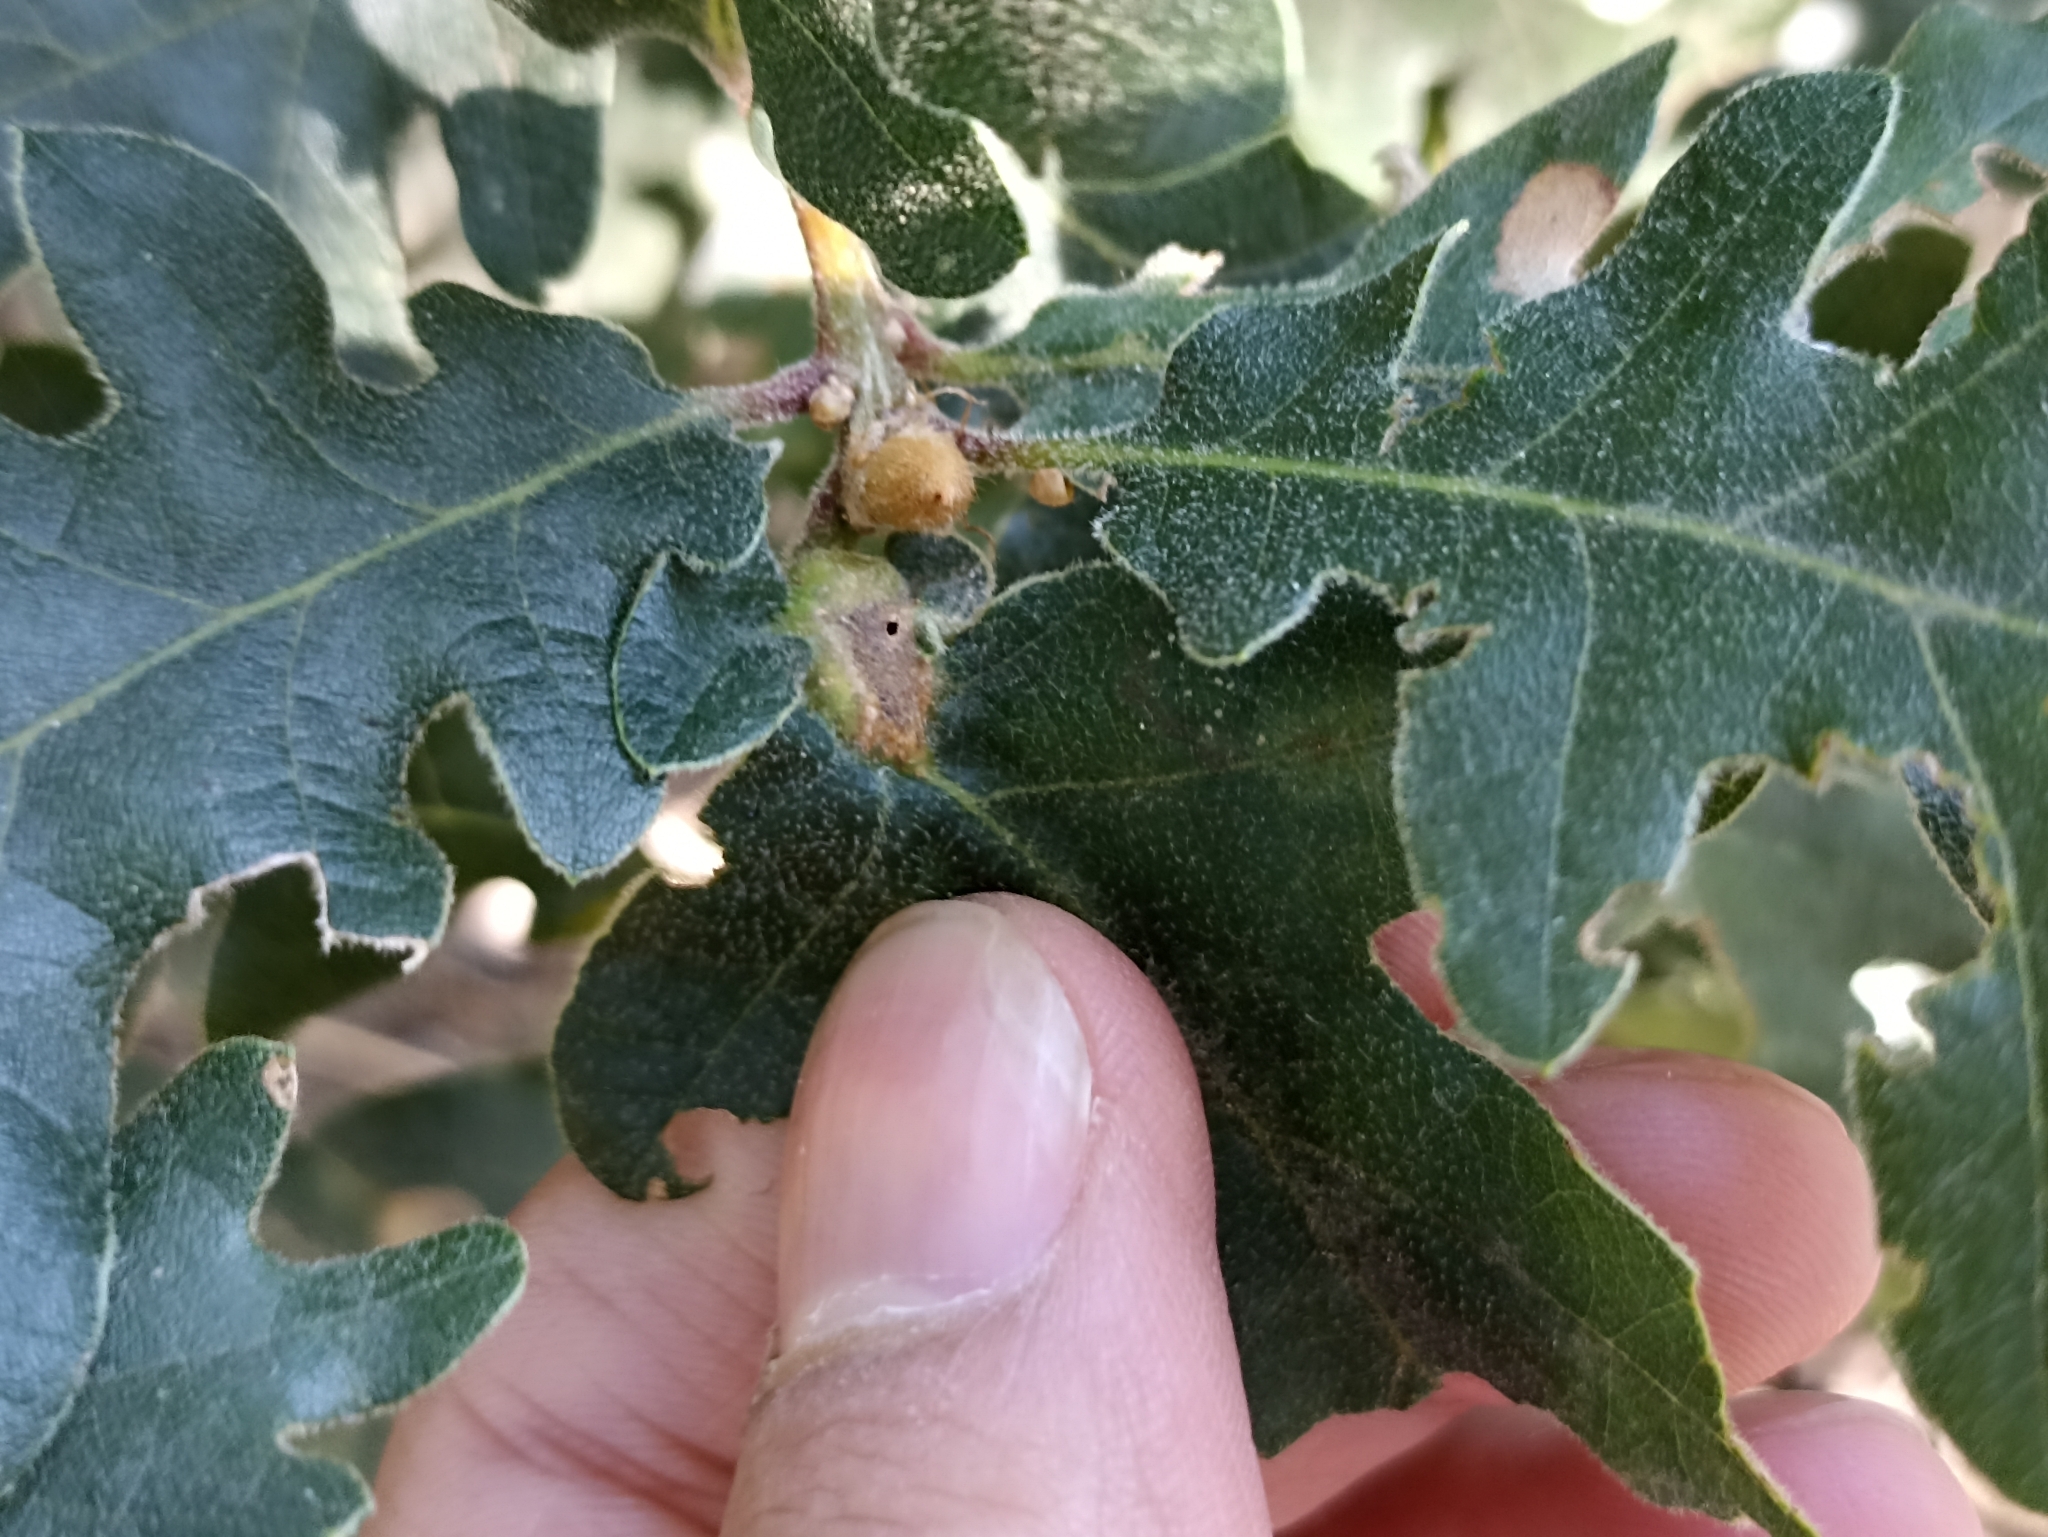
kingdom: Animalia
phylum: Arthropoda
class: Insecta
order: Hymenoptera
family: Cynipidae
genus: Andricus
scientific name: Andricus curvator
